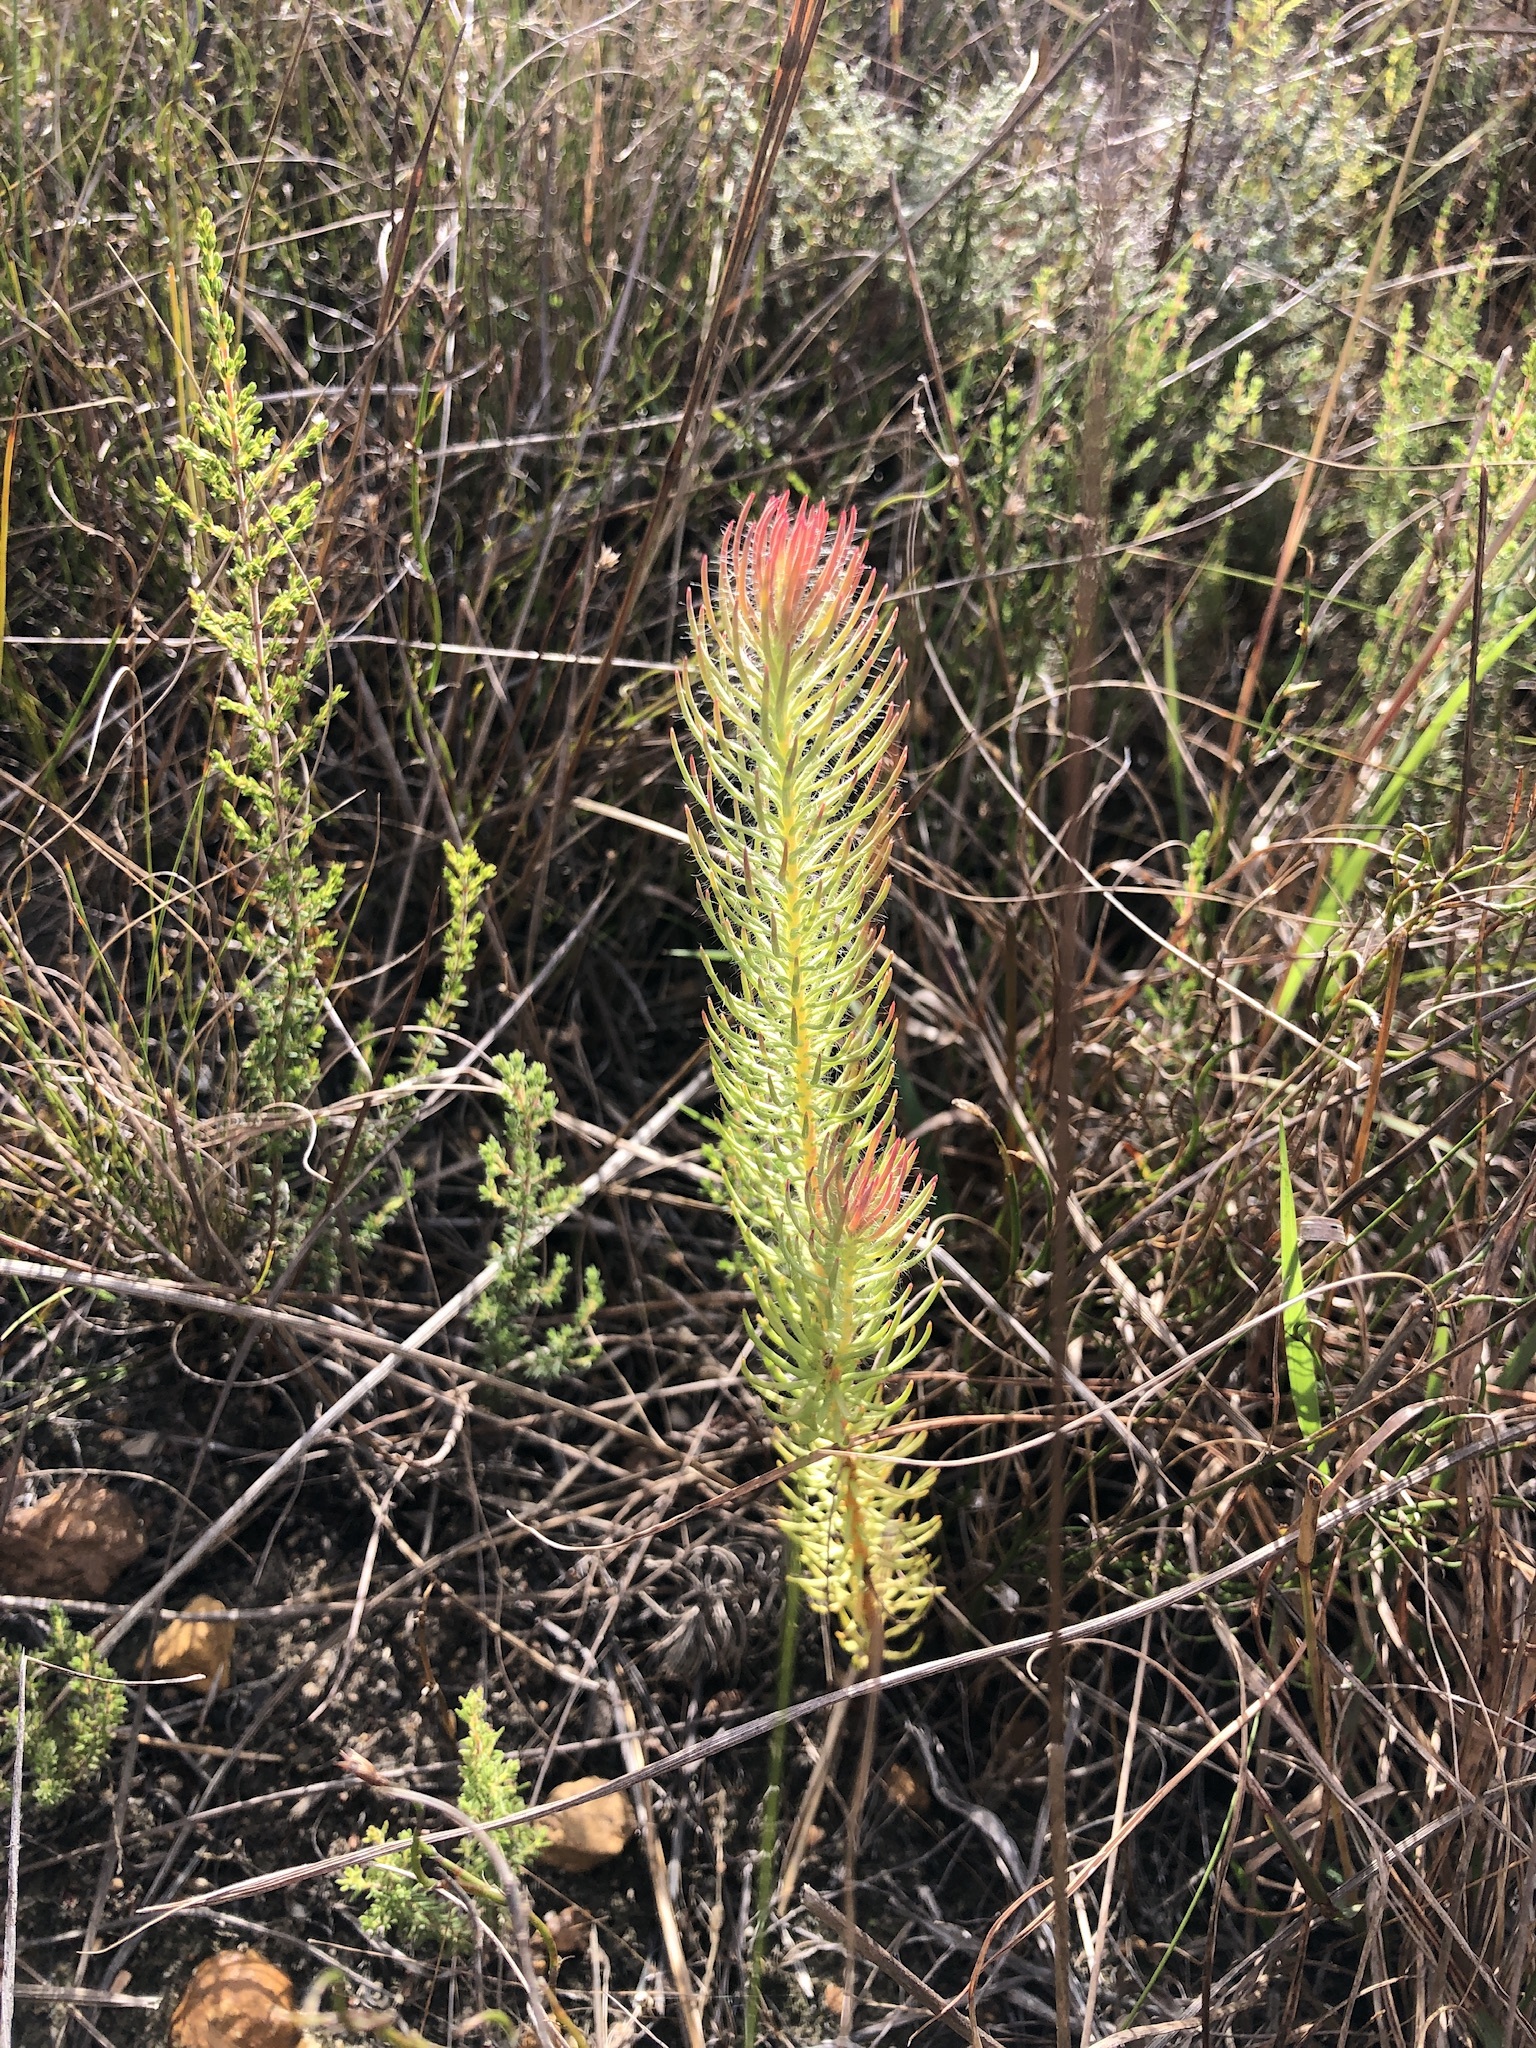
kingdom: Plantae
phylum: Tracheophyta
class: Magnoliopsida
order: Proteales
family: Proteaceae
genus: Leucadendron
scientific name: Leucadendron laxum
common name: Bredasdorp conebush
